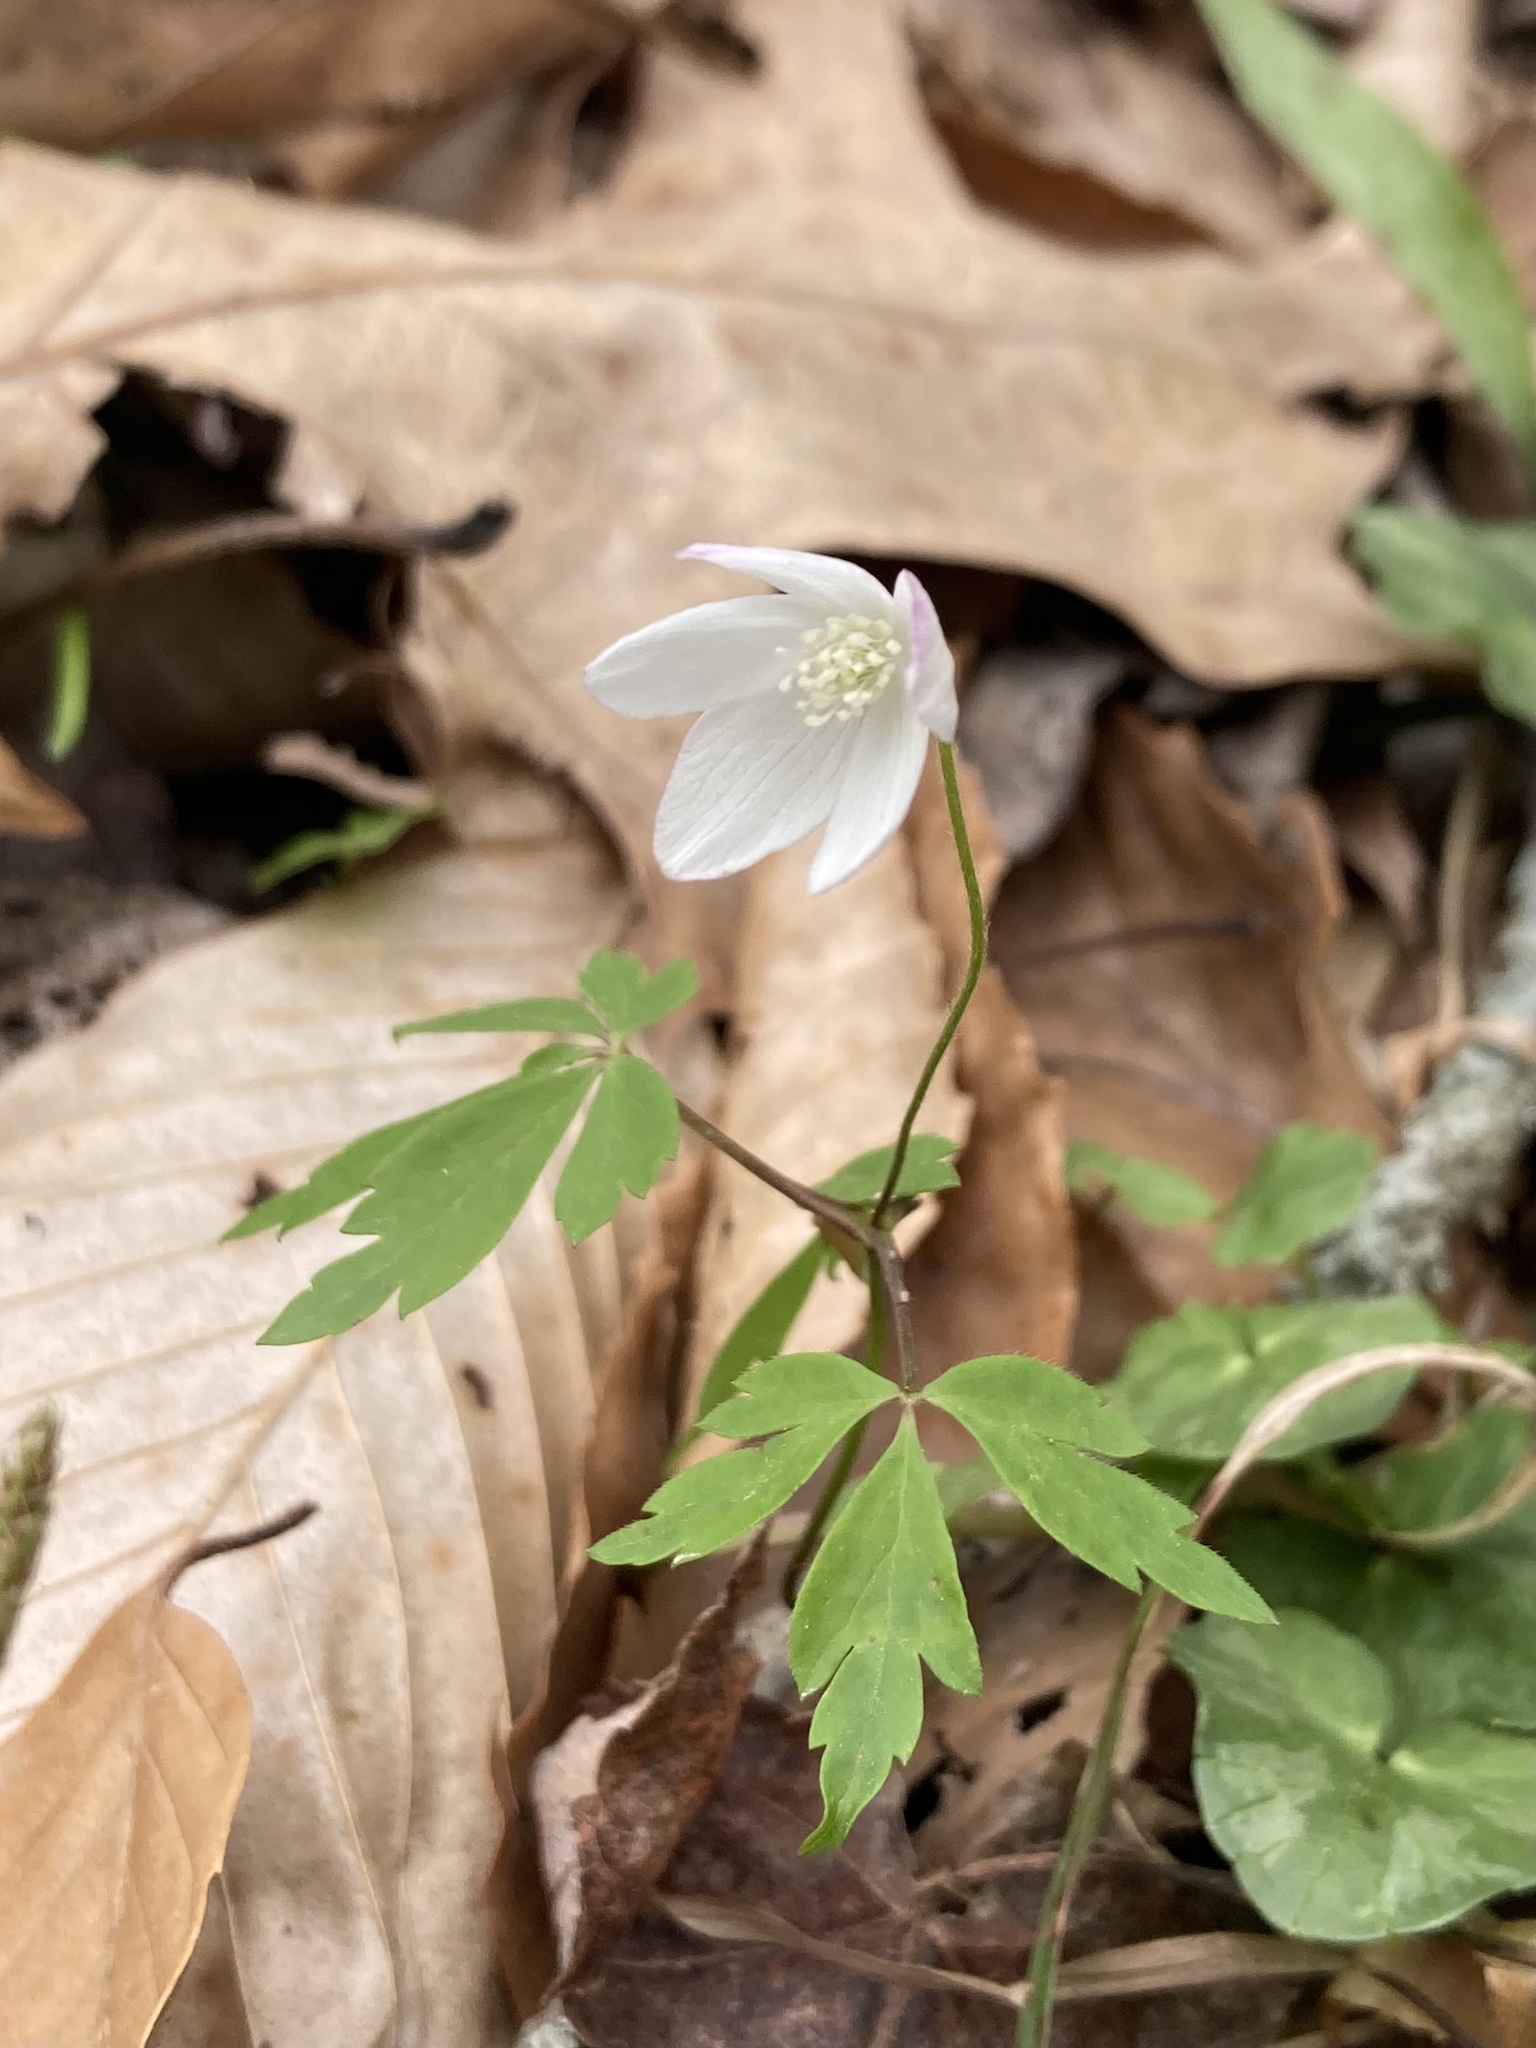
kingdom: Plantae
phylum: Tracheophyta
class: Magnoliopsida
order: Ranunculales
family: Ranunculaceae
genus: Anemone
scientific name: Anemone quinquefolia
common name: Wood anemone
